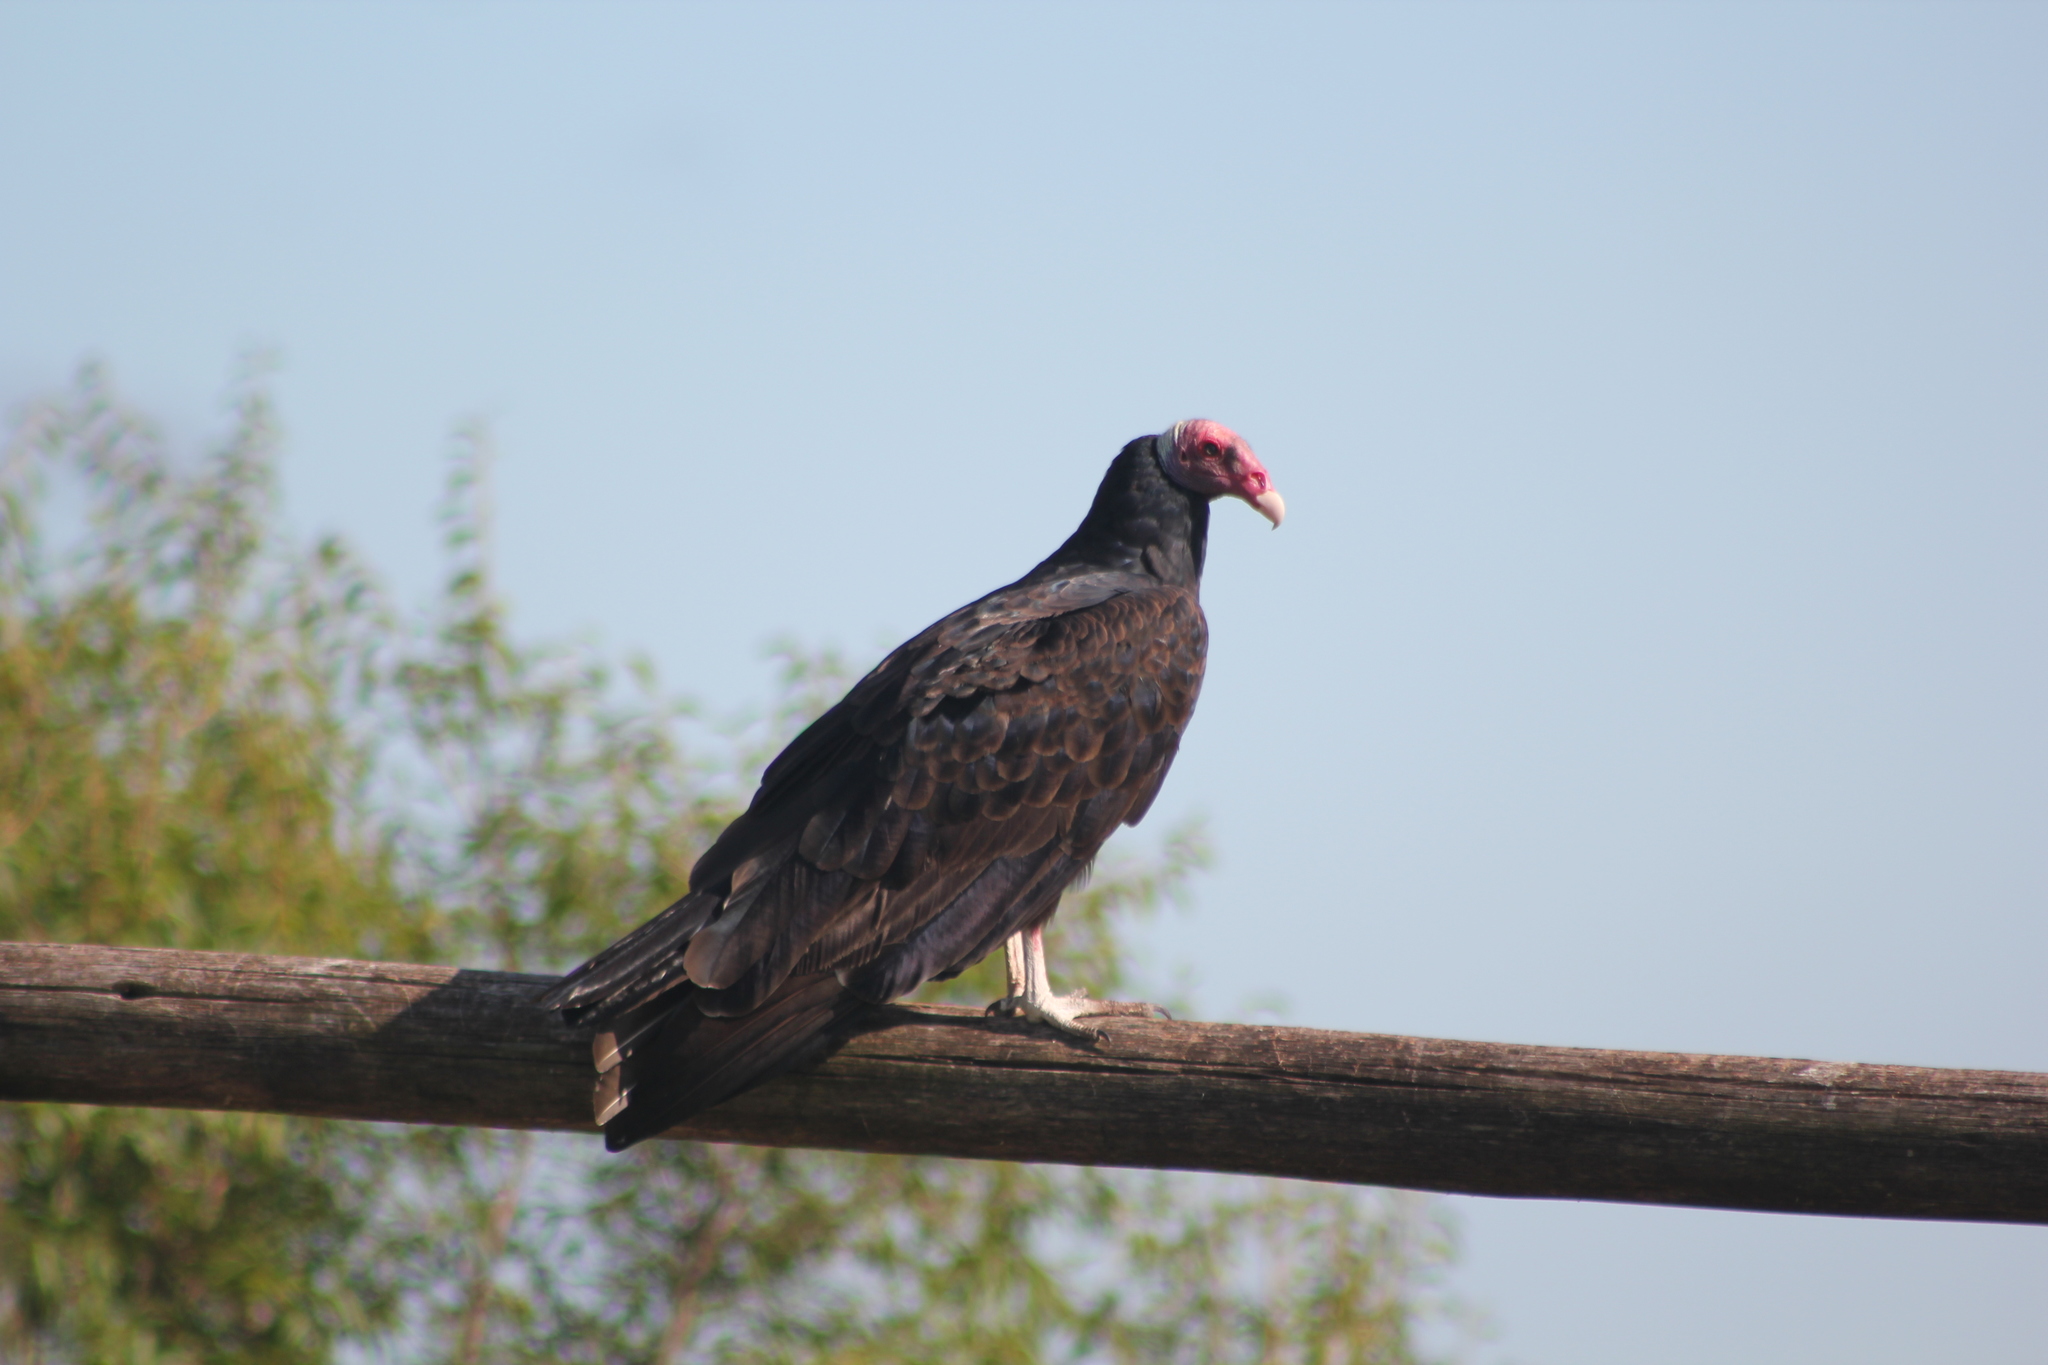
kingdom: Animalia
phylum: Chordata
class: Aves
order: Accipitriformes
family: Cathartidae
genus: Cathartes
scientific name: Cathartes aura
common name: Turkey vulture
